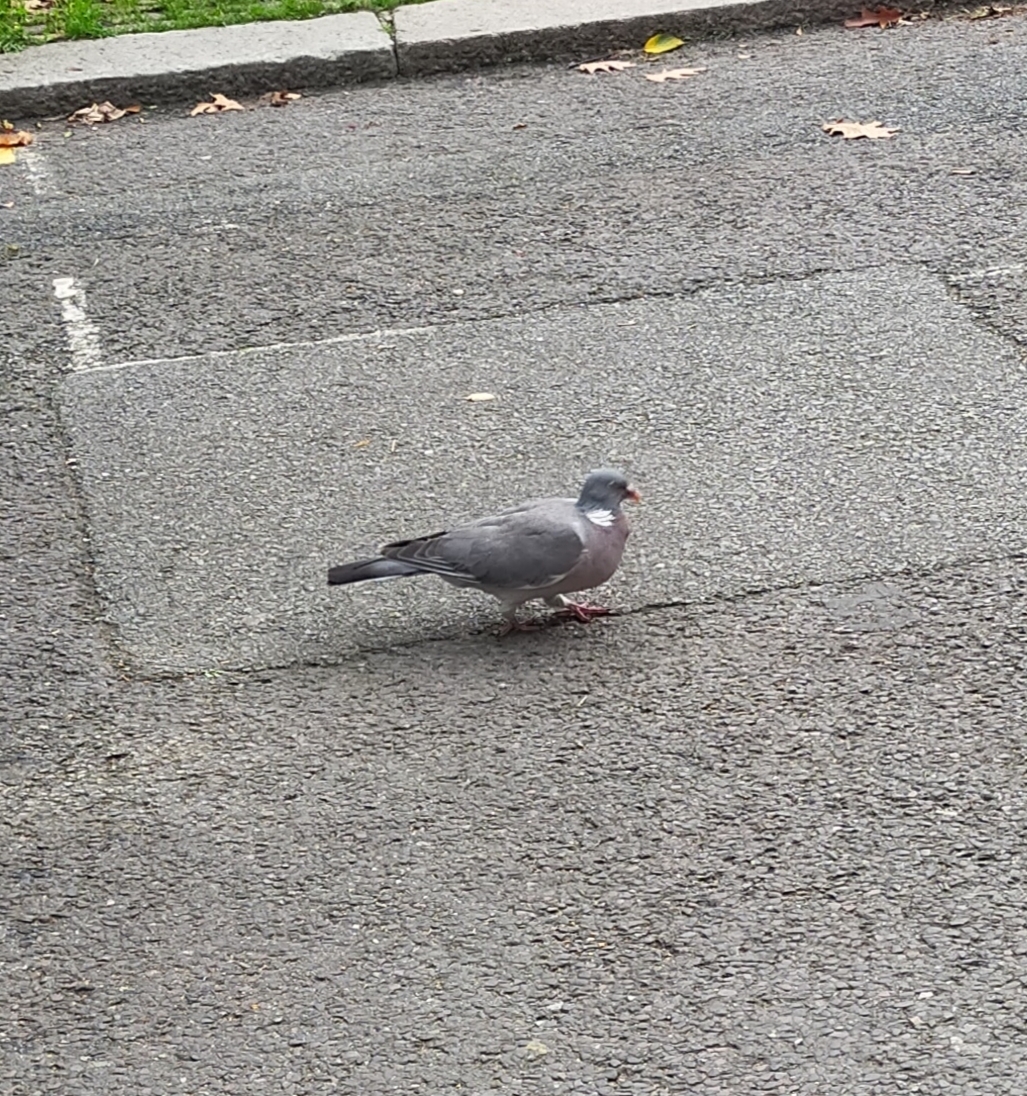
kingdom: Animalia
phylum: Chordata
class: Aves
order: Columbiformes
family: Columbidae
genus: Columba
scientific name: Columba palumbus
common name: Common wood pigeon
